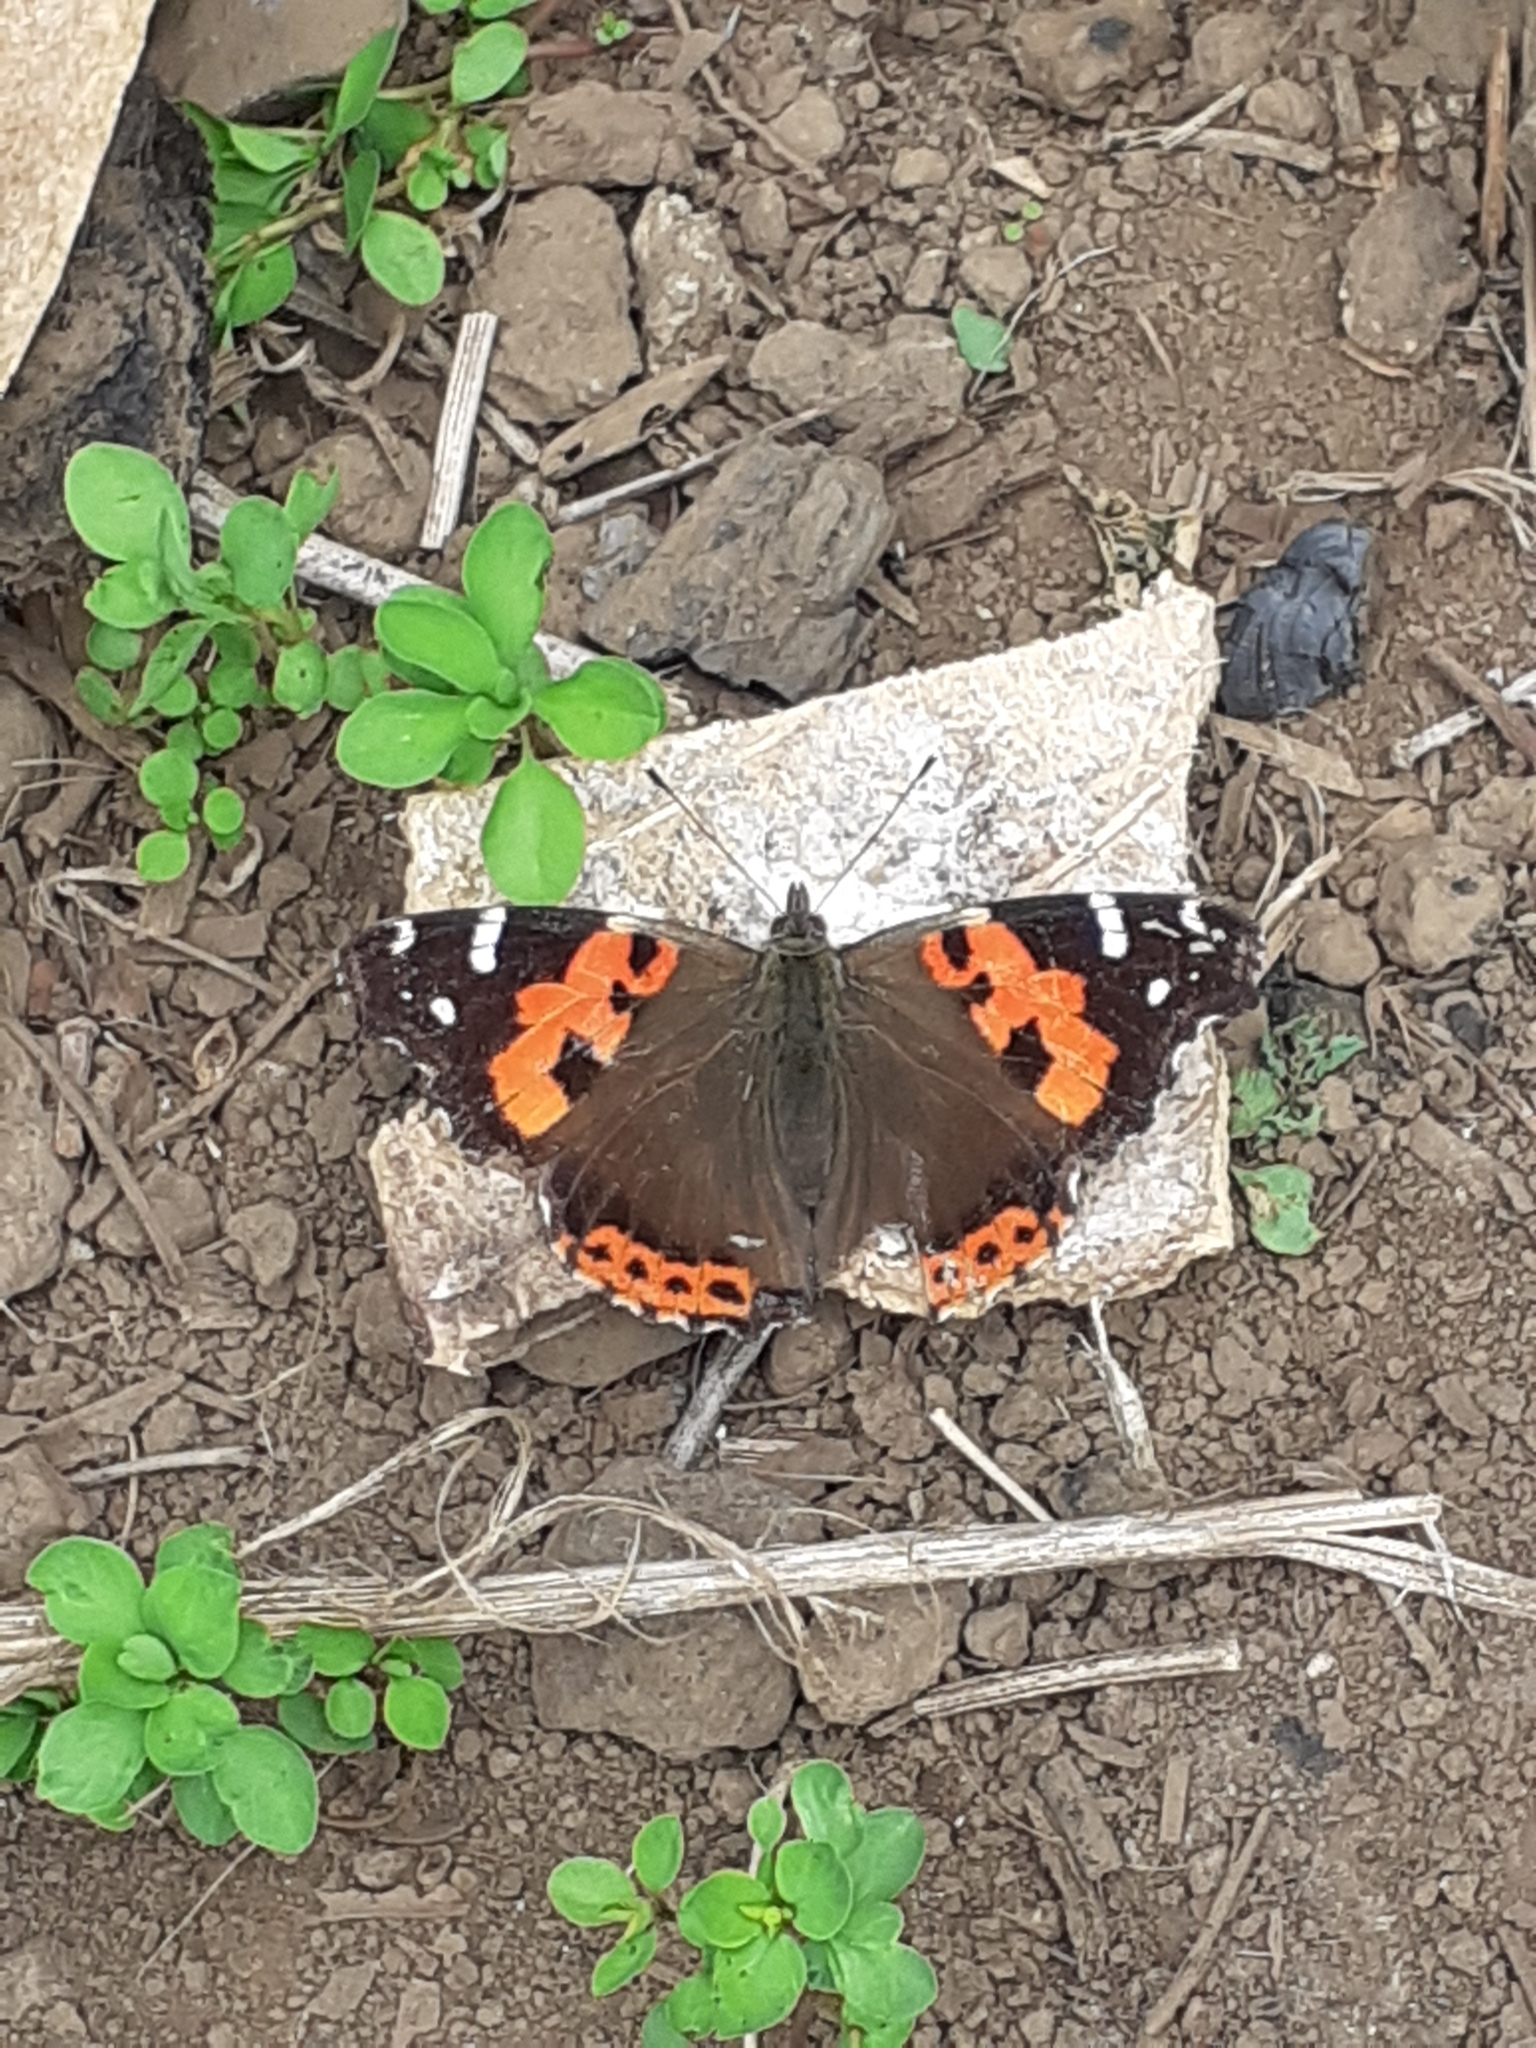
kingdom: Animalia
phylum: Arthropoda
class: Insecta
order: Lepidoptera
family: Nymphalidae
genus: Vanessa
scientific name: Vanessa vulcania
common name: Canary red admiral
